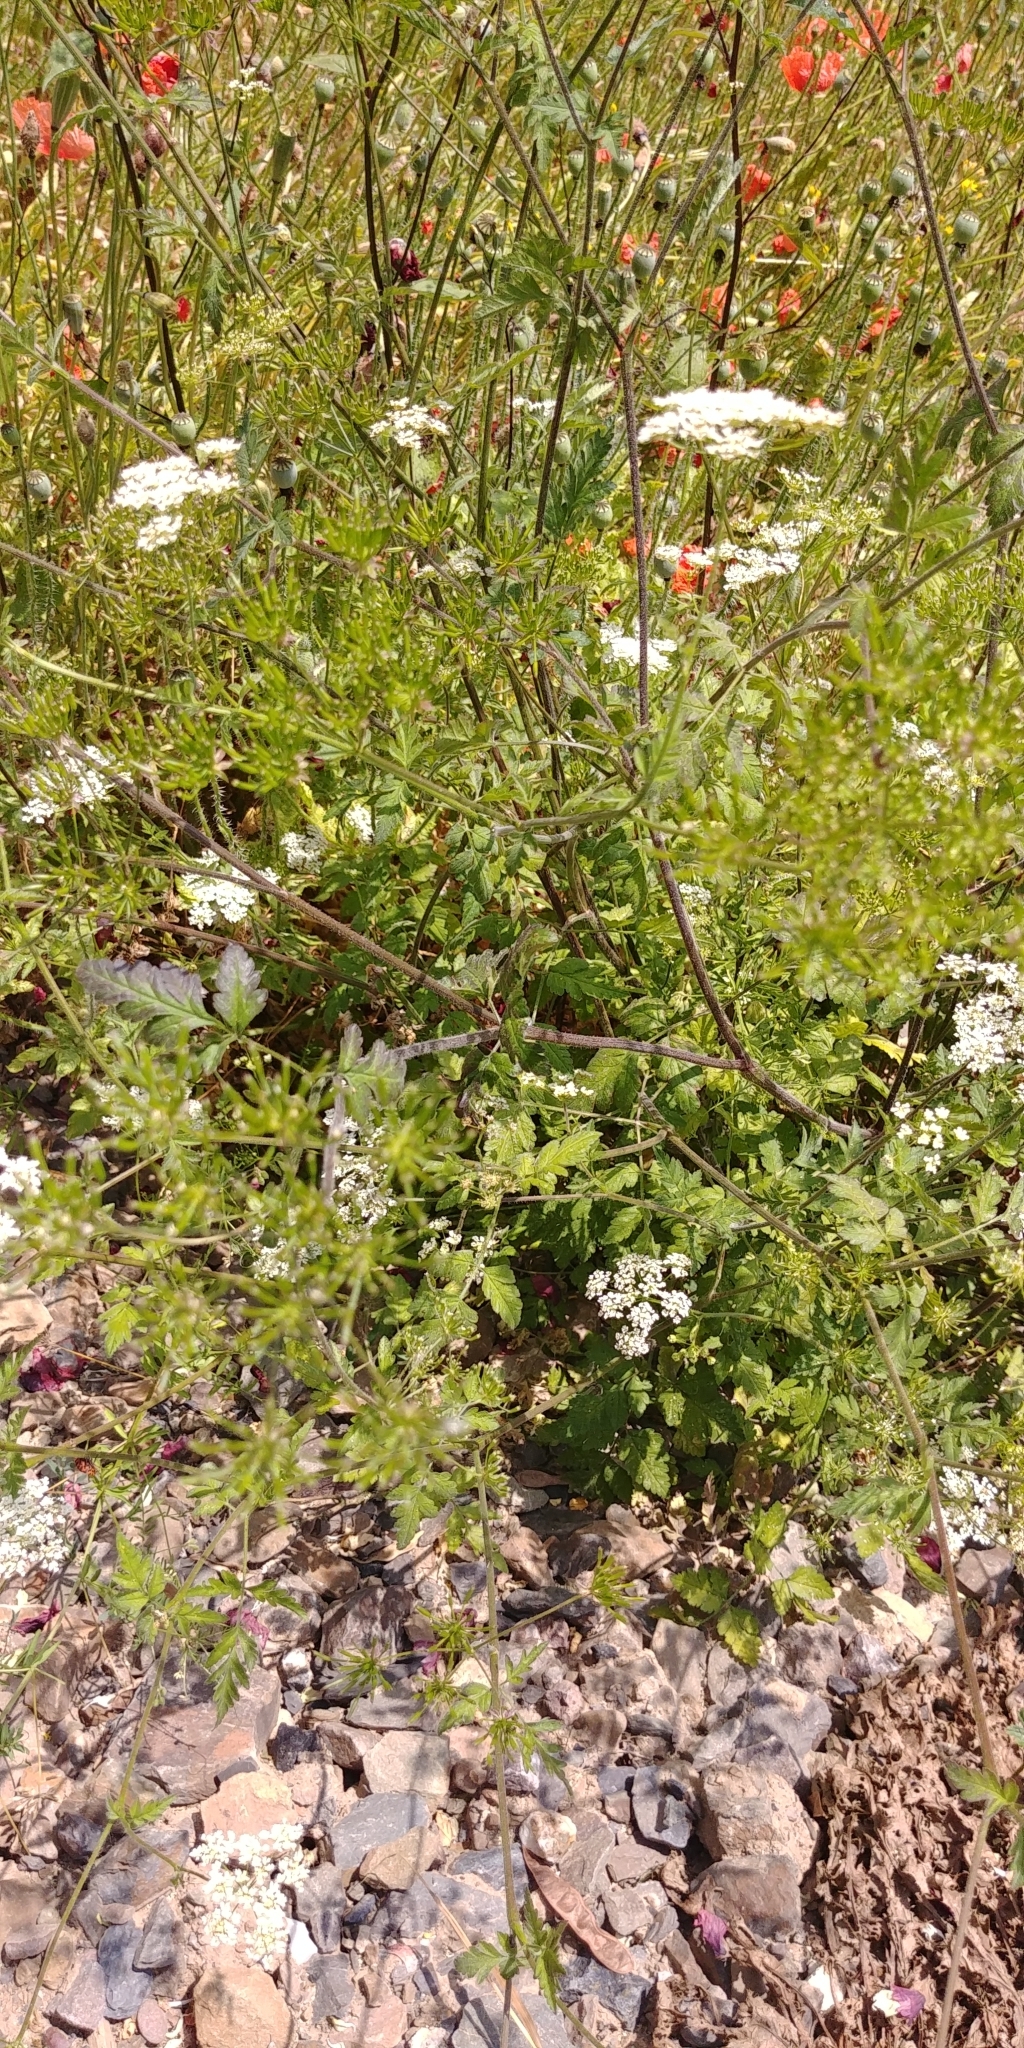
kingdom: Plantae
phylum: Tracheophyta
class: Magnoliopsida
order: Apiales
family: Apiaceae
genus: Chaerophyllum
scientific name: Chaerophyllum temulum
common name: Rough chervil
